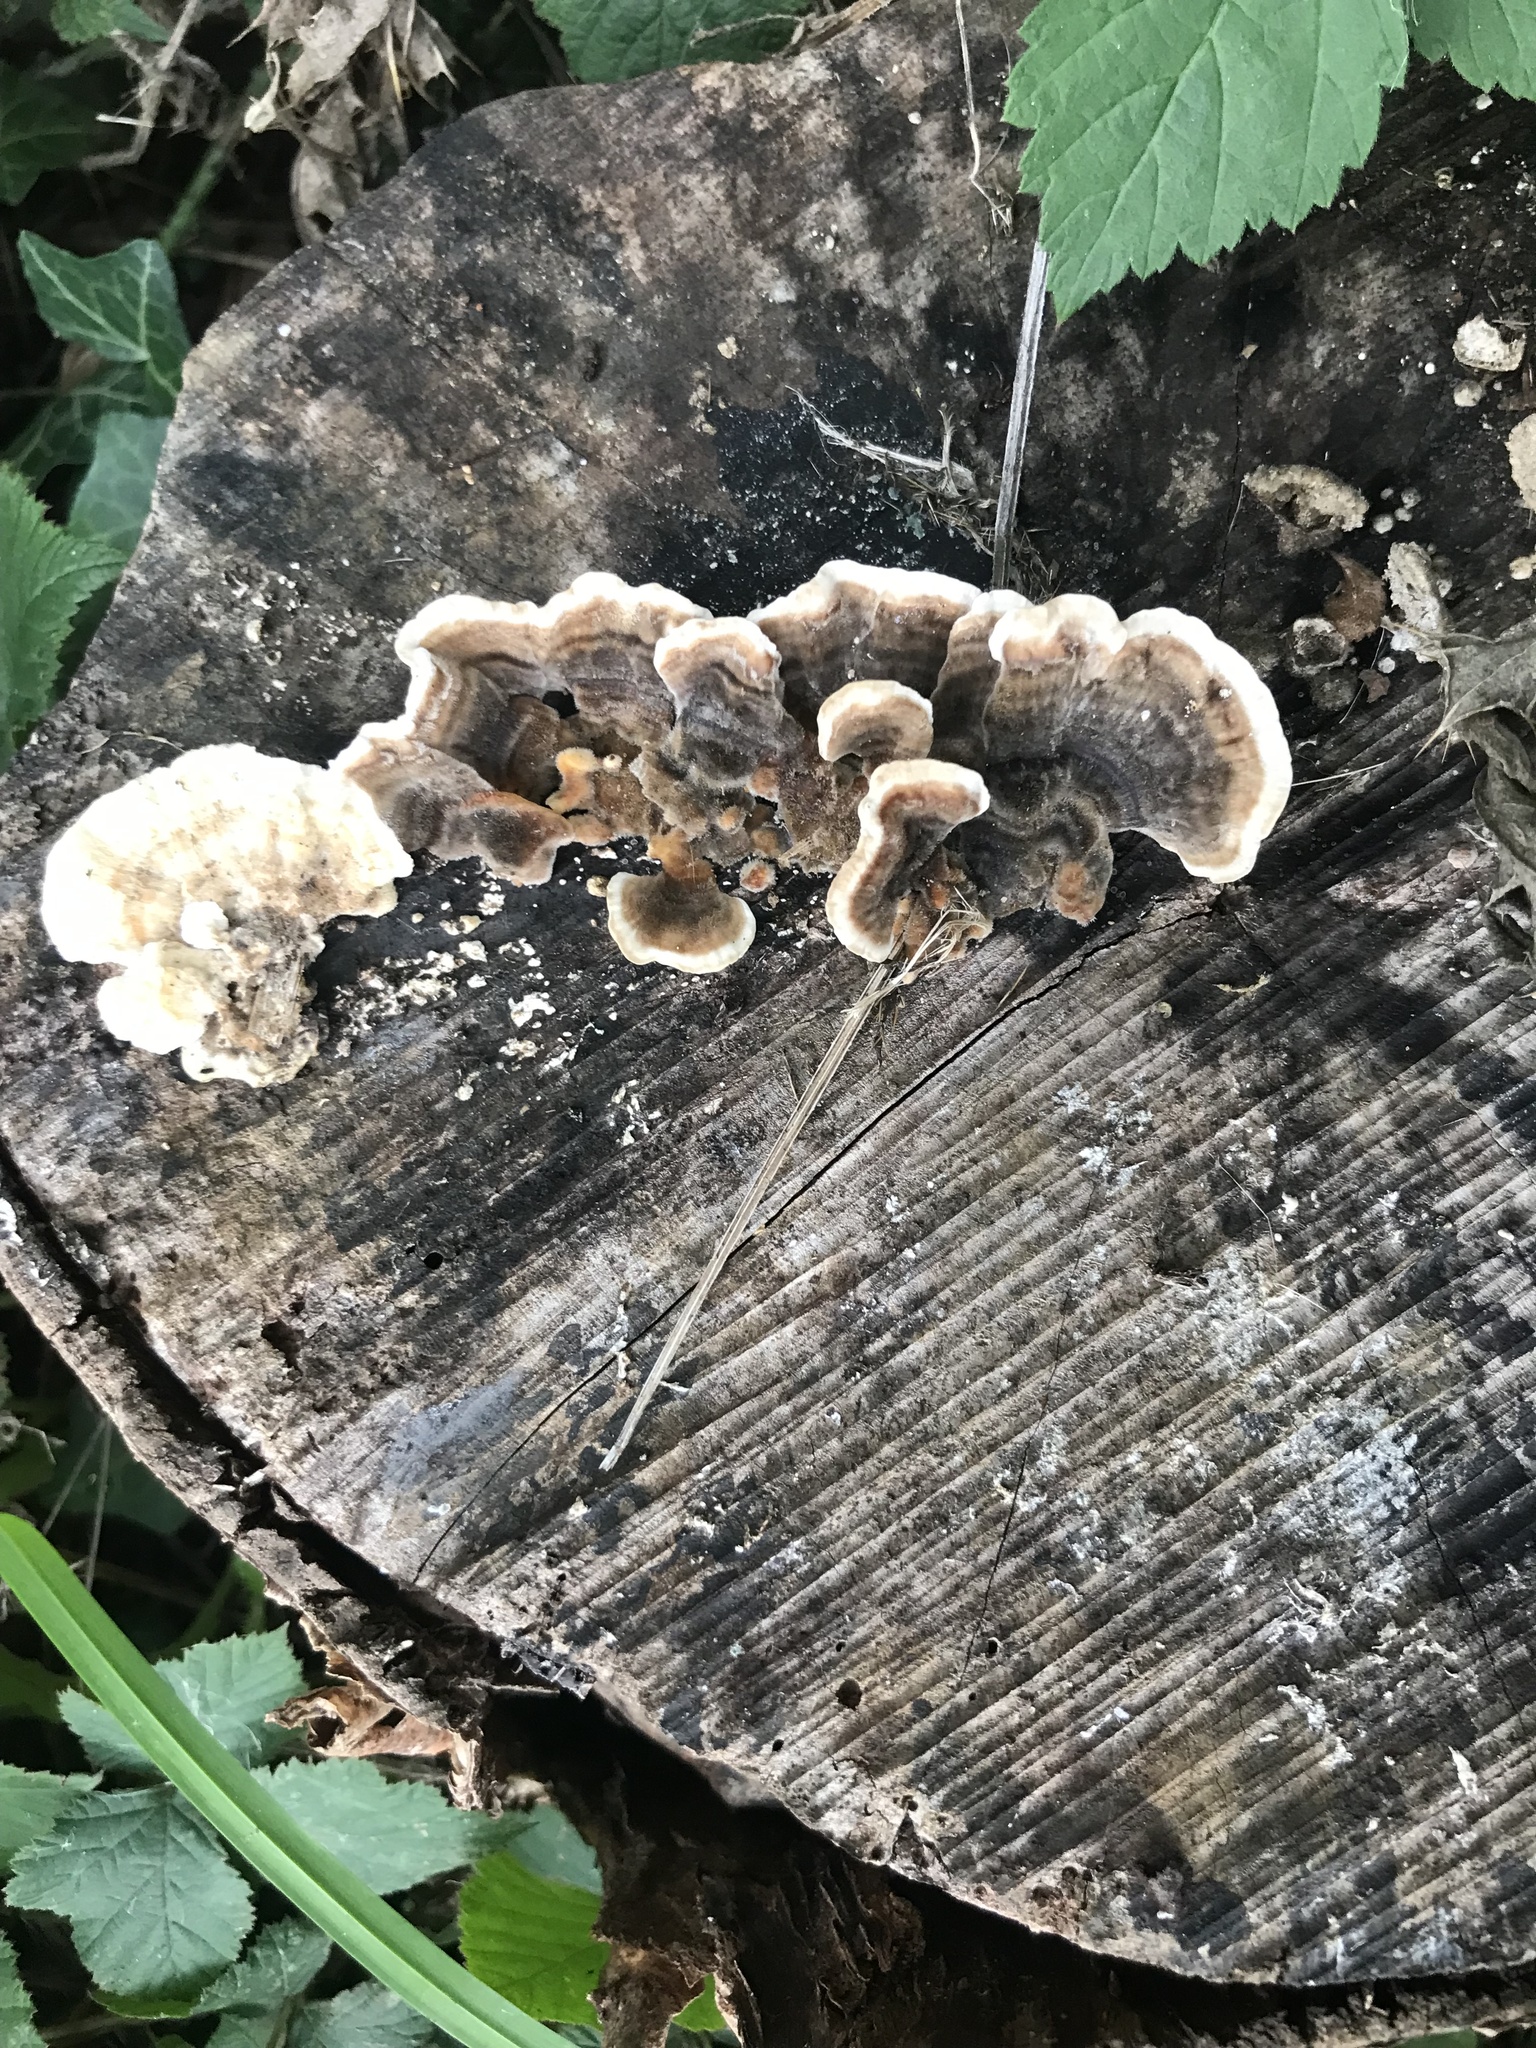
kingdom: Fungi
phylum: Basidiomycota
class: Agaricomycetes
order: Polyporales
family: Polyporaceae
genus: Trametes
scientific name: Trametes versicolor
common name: Turkeytail
